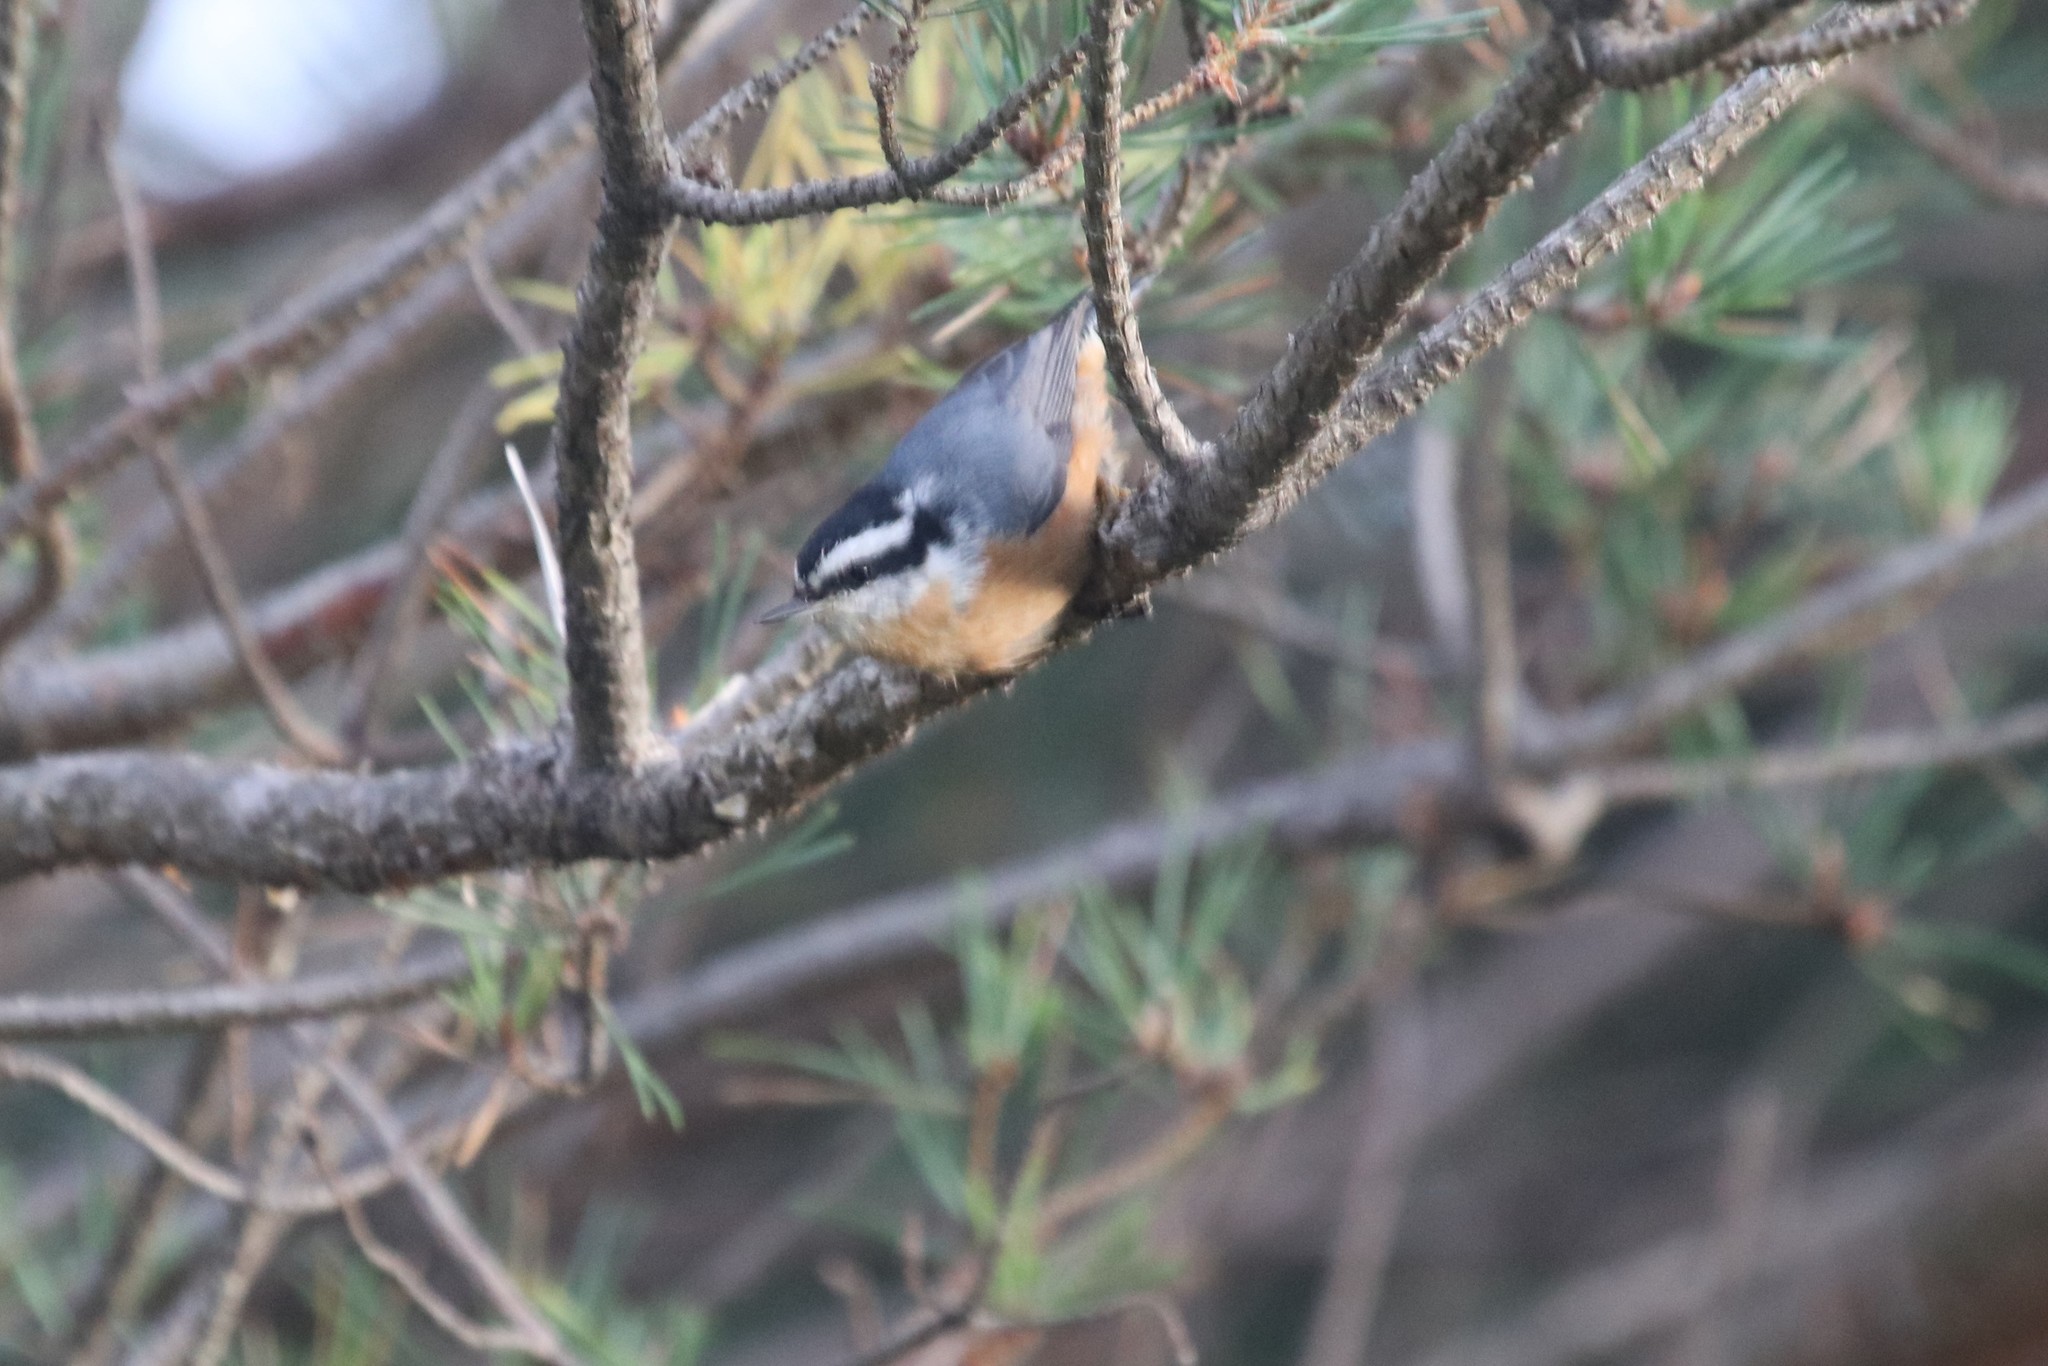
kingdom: Animalia
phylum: Chordata
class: Aves
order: Passeriformes
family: Sittidae
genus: Sitta
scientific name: Sitta canadensis
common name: Red-breasted nuthatch
